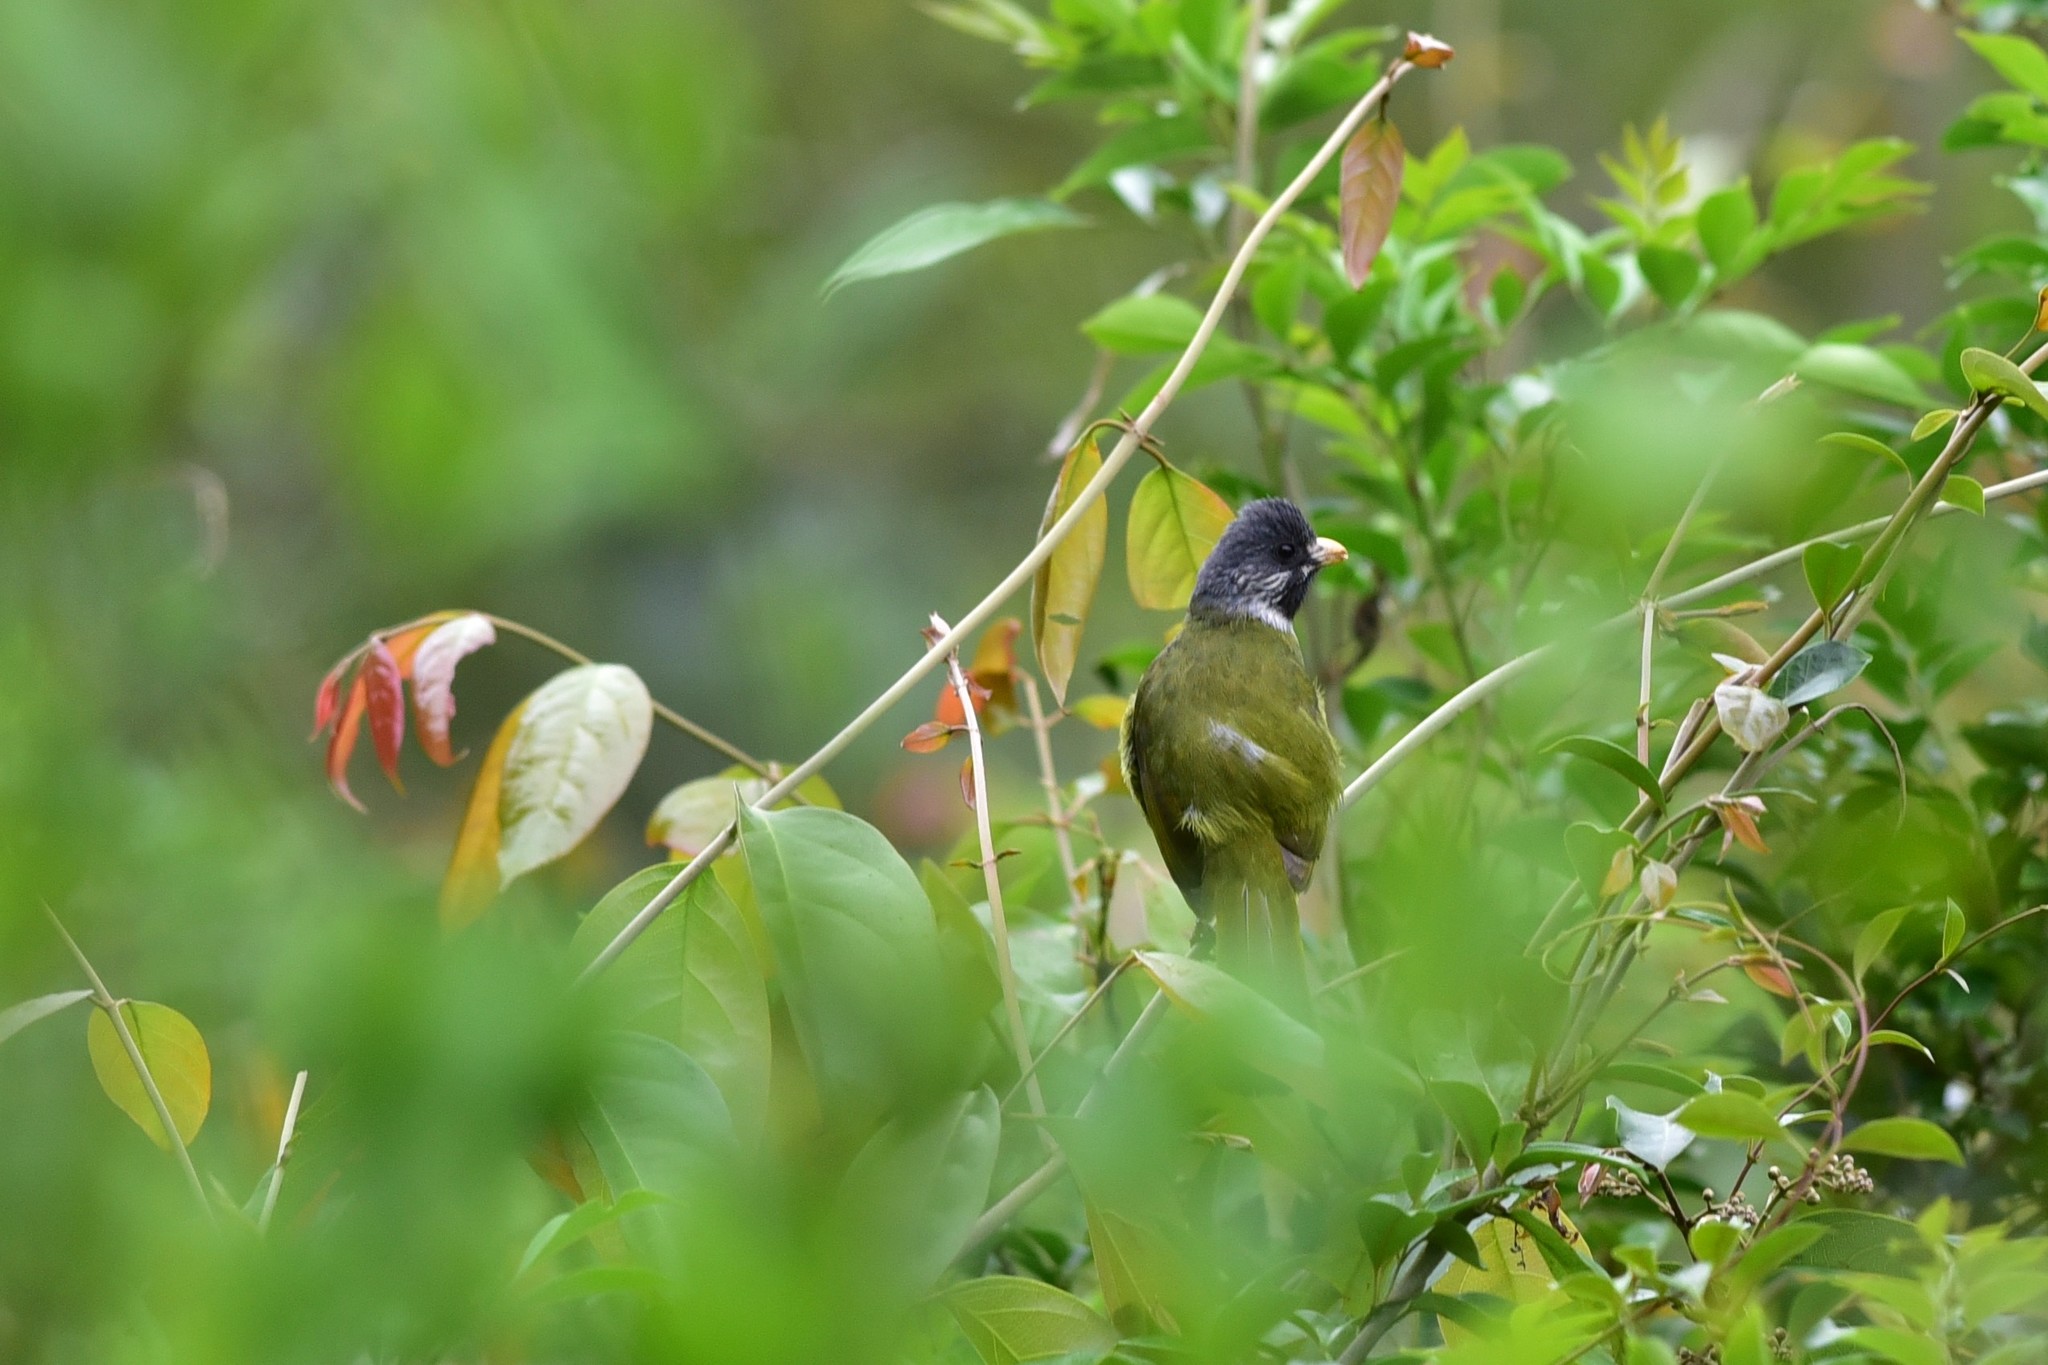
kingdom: Animalia
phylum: Chordata
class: Aves
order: Passeriformes
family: Pycnonotidae
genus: Spizixos
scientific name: Spizixos semitorques
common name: Collared finchbill
